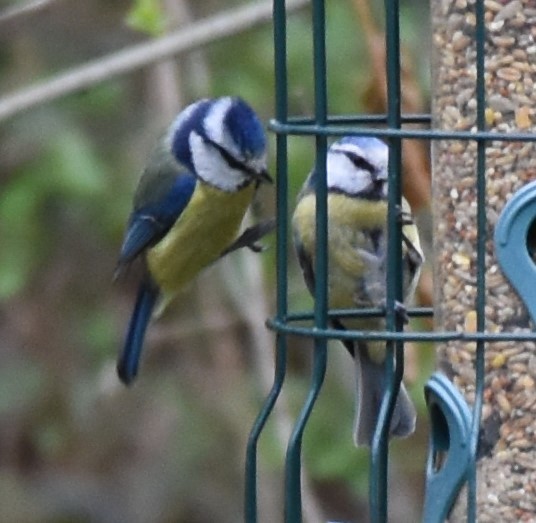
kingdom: Animalia
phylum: Chordata
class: Aves
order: Passeriformes
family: Paridae
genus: Cyanistes
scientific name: Cyanistes caeruleus
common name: Eurasian blue tit
